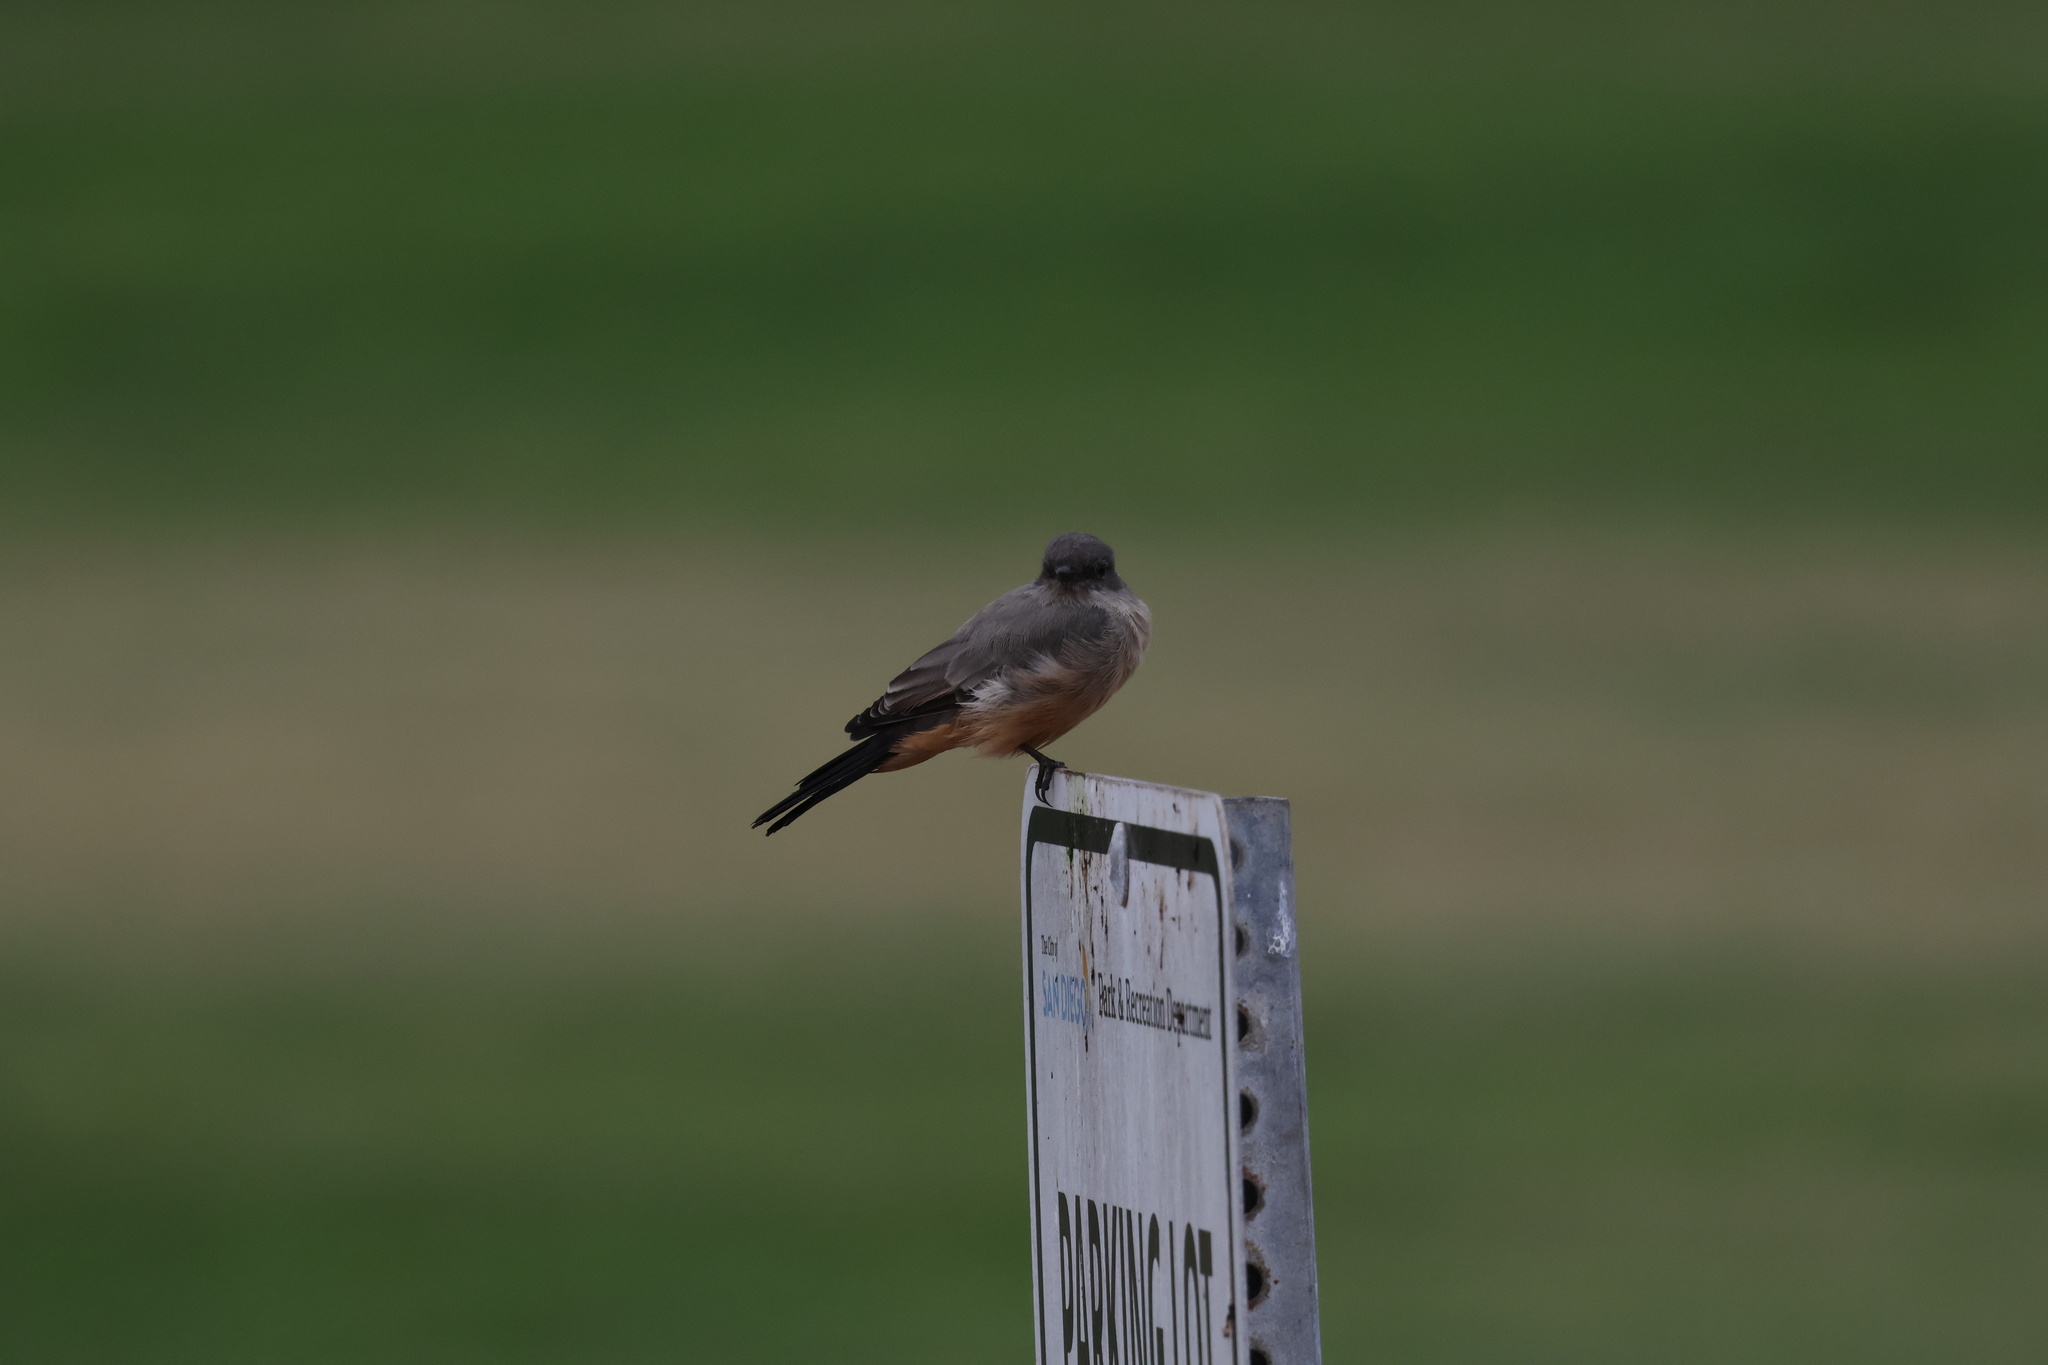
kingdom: Animalia
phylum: Chordata
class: Aves
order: Passeriformes
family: Tyrannidae
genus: Sayornis
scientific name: Sayornis saya
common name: Say's phoebe
